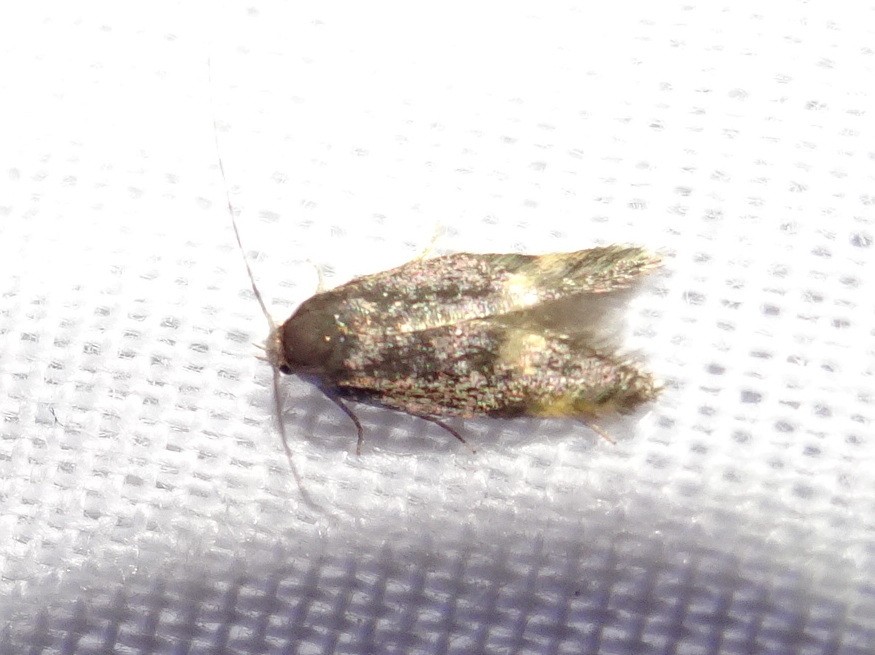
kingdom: Animalia
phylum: Arthropoda
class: Insecta
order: Lepidoptera
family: Oecophoridae
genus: Borkhausenia
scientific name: Borkhausenia minutella
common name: Thatch tubic
